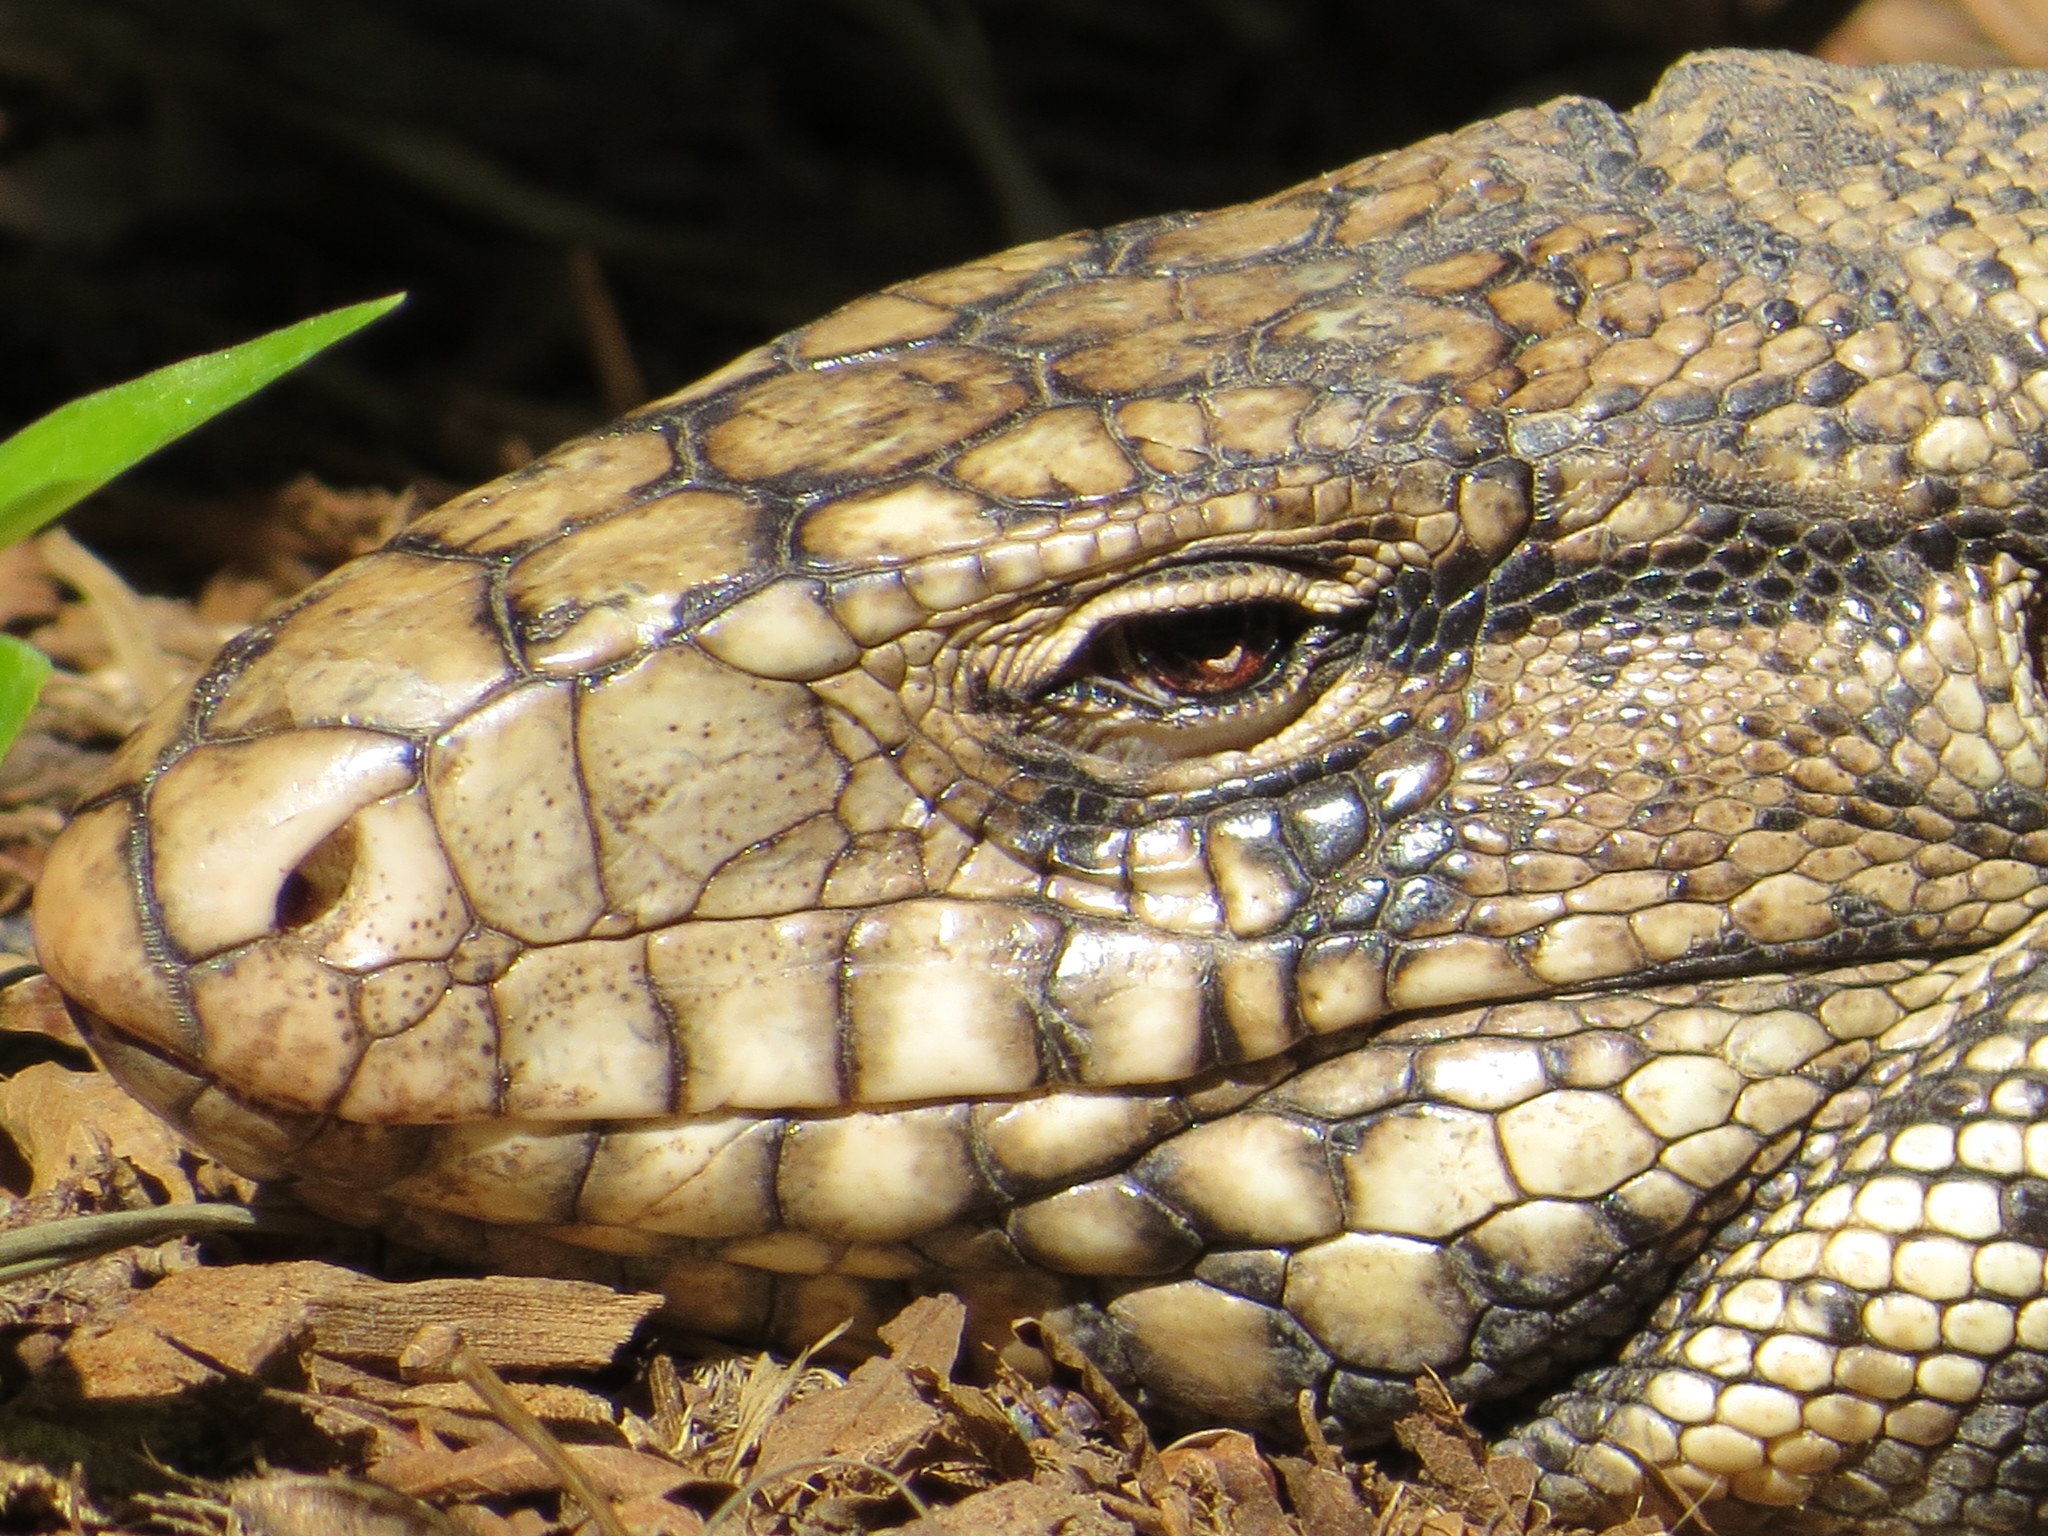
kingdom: Animalia
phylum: Chordata
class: Squamata
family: Teiidae
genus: Salvator
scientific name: Salvator merianae
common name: Argentine black and white tegu
